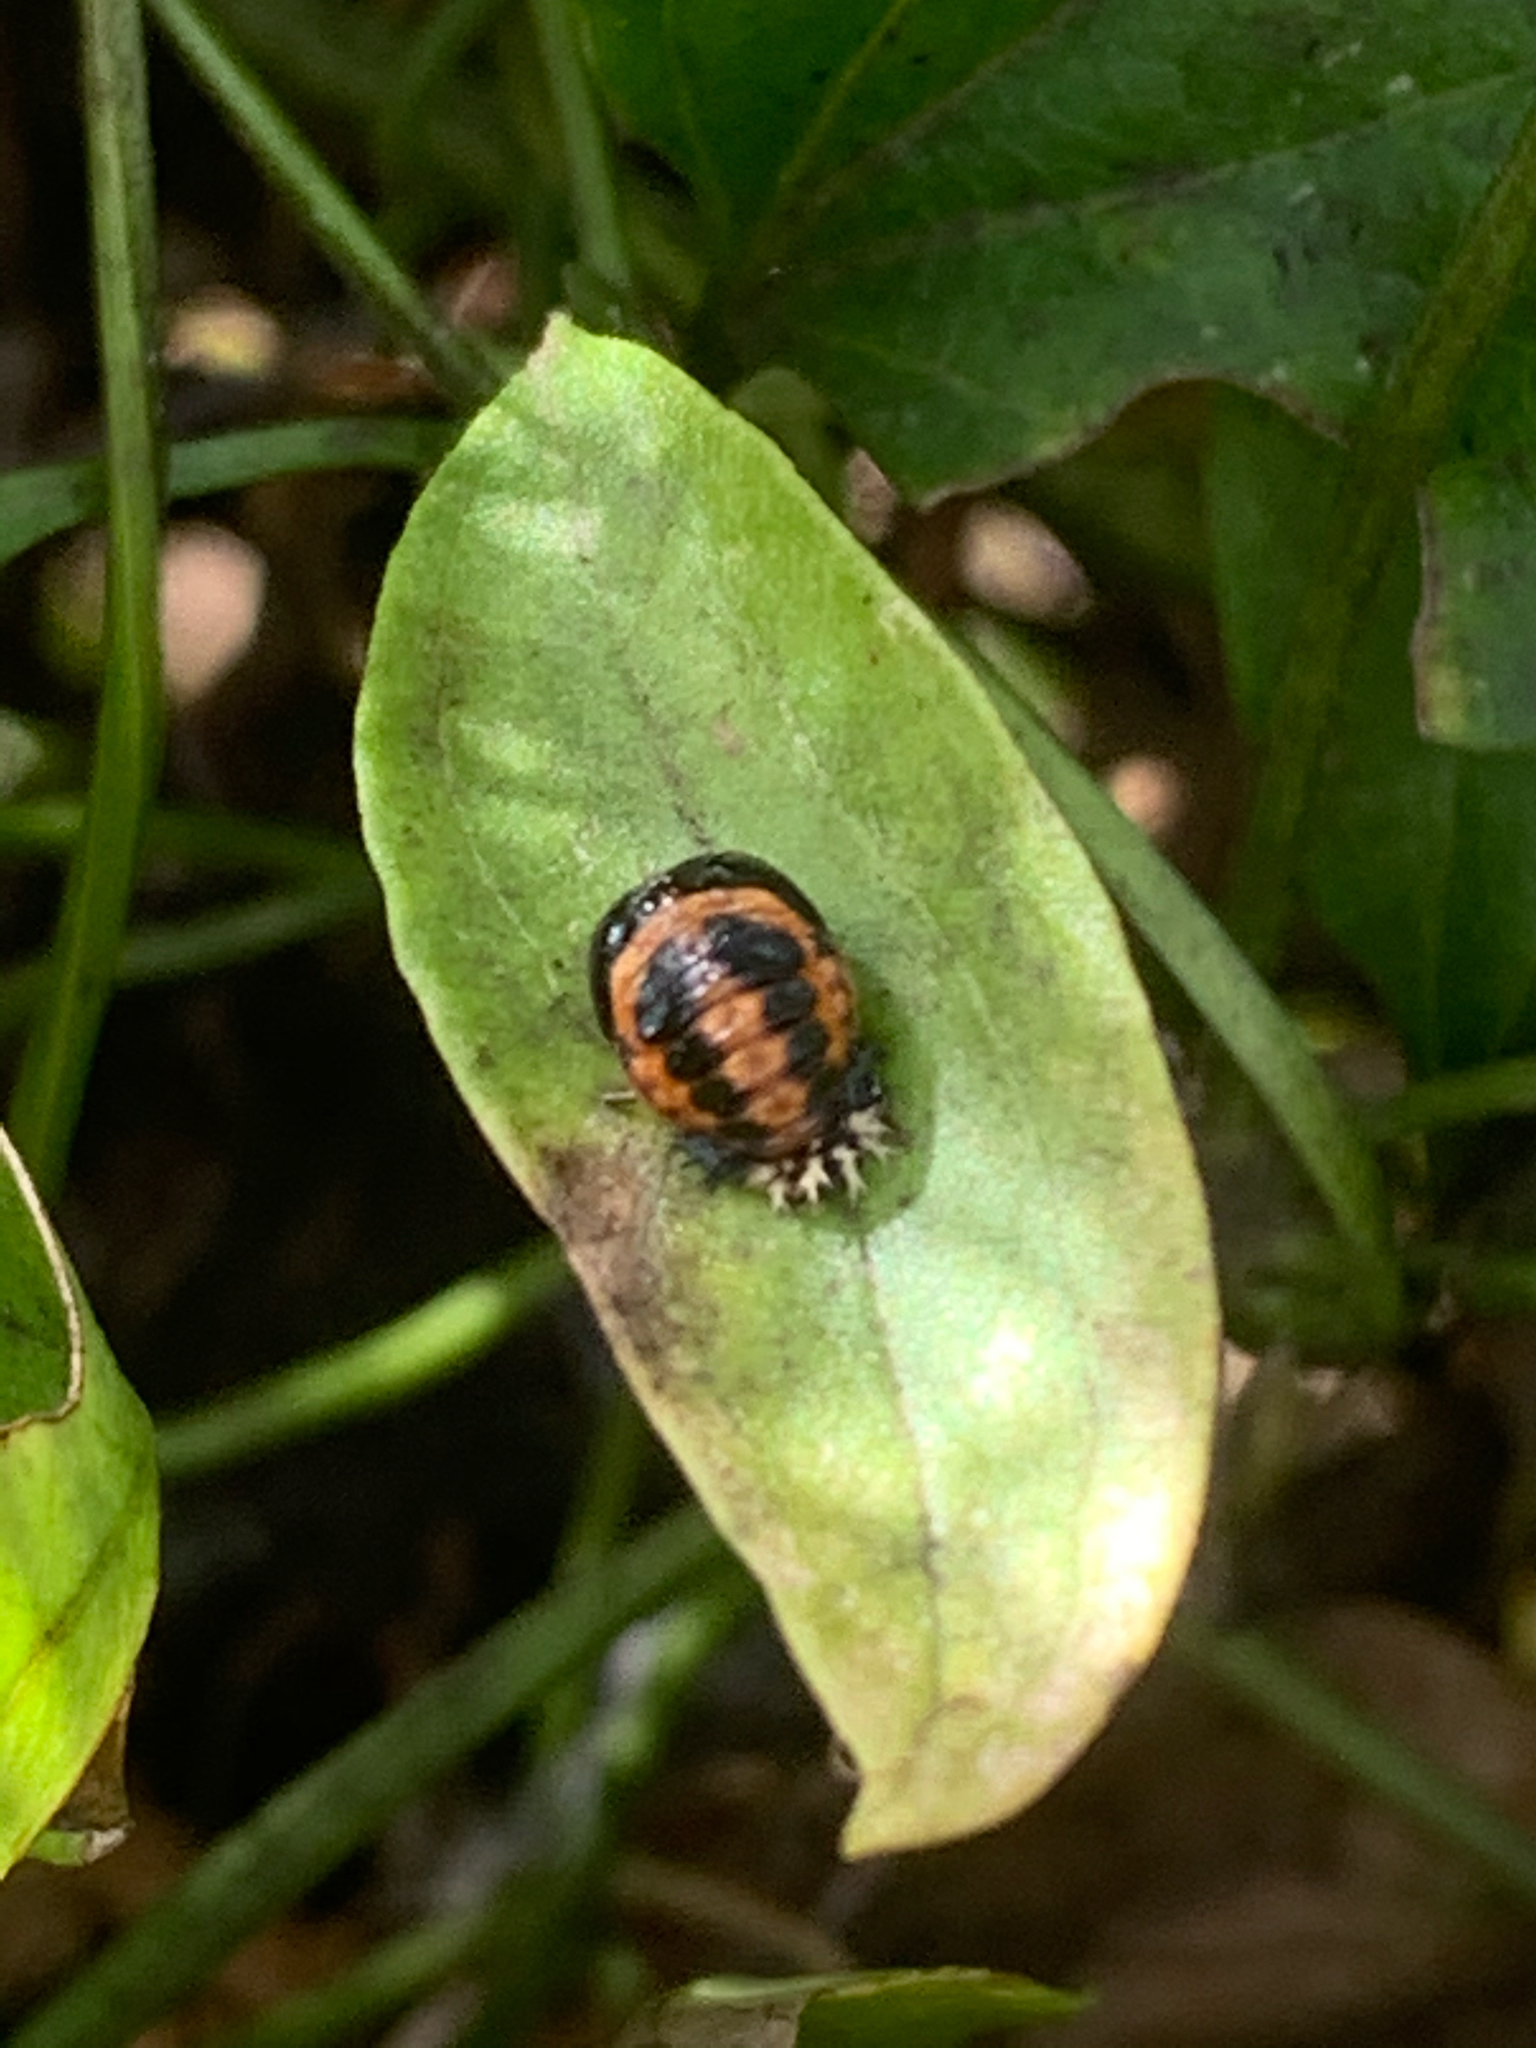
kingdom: Animalia
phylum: Arthropoda
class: Insecta
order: Coleoptera
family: Coccinellidae
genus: Harmonia
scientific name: Harmonia axyridis
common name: Harlequin ladybird
